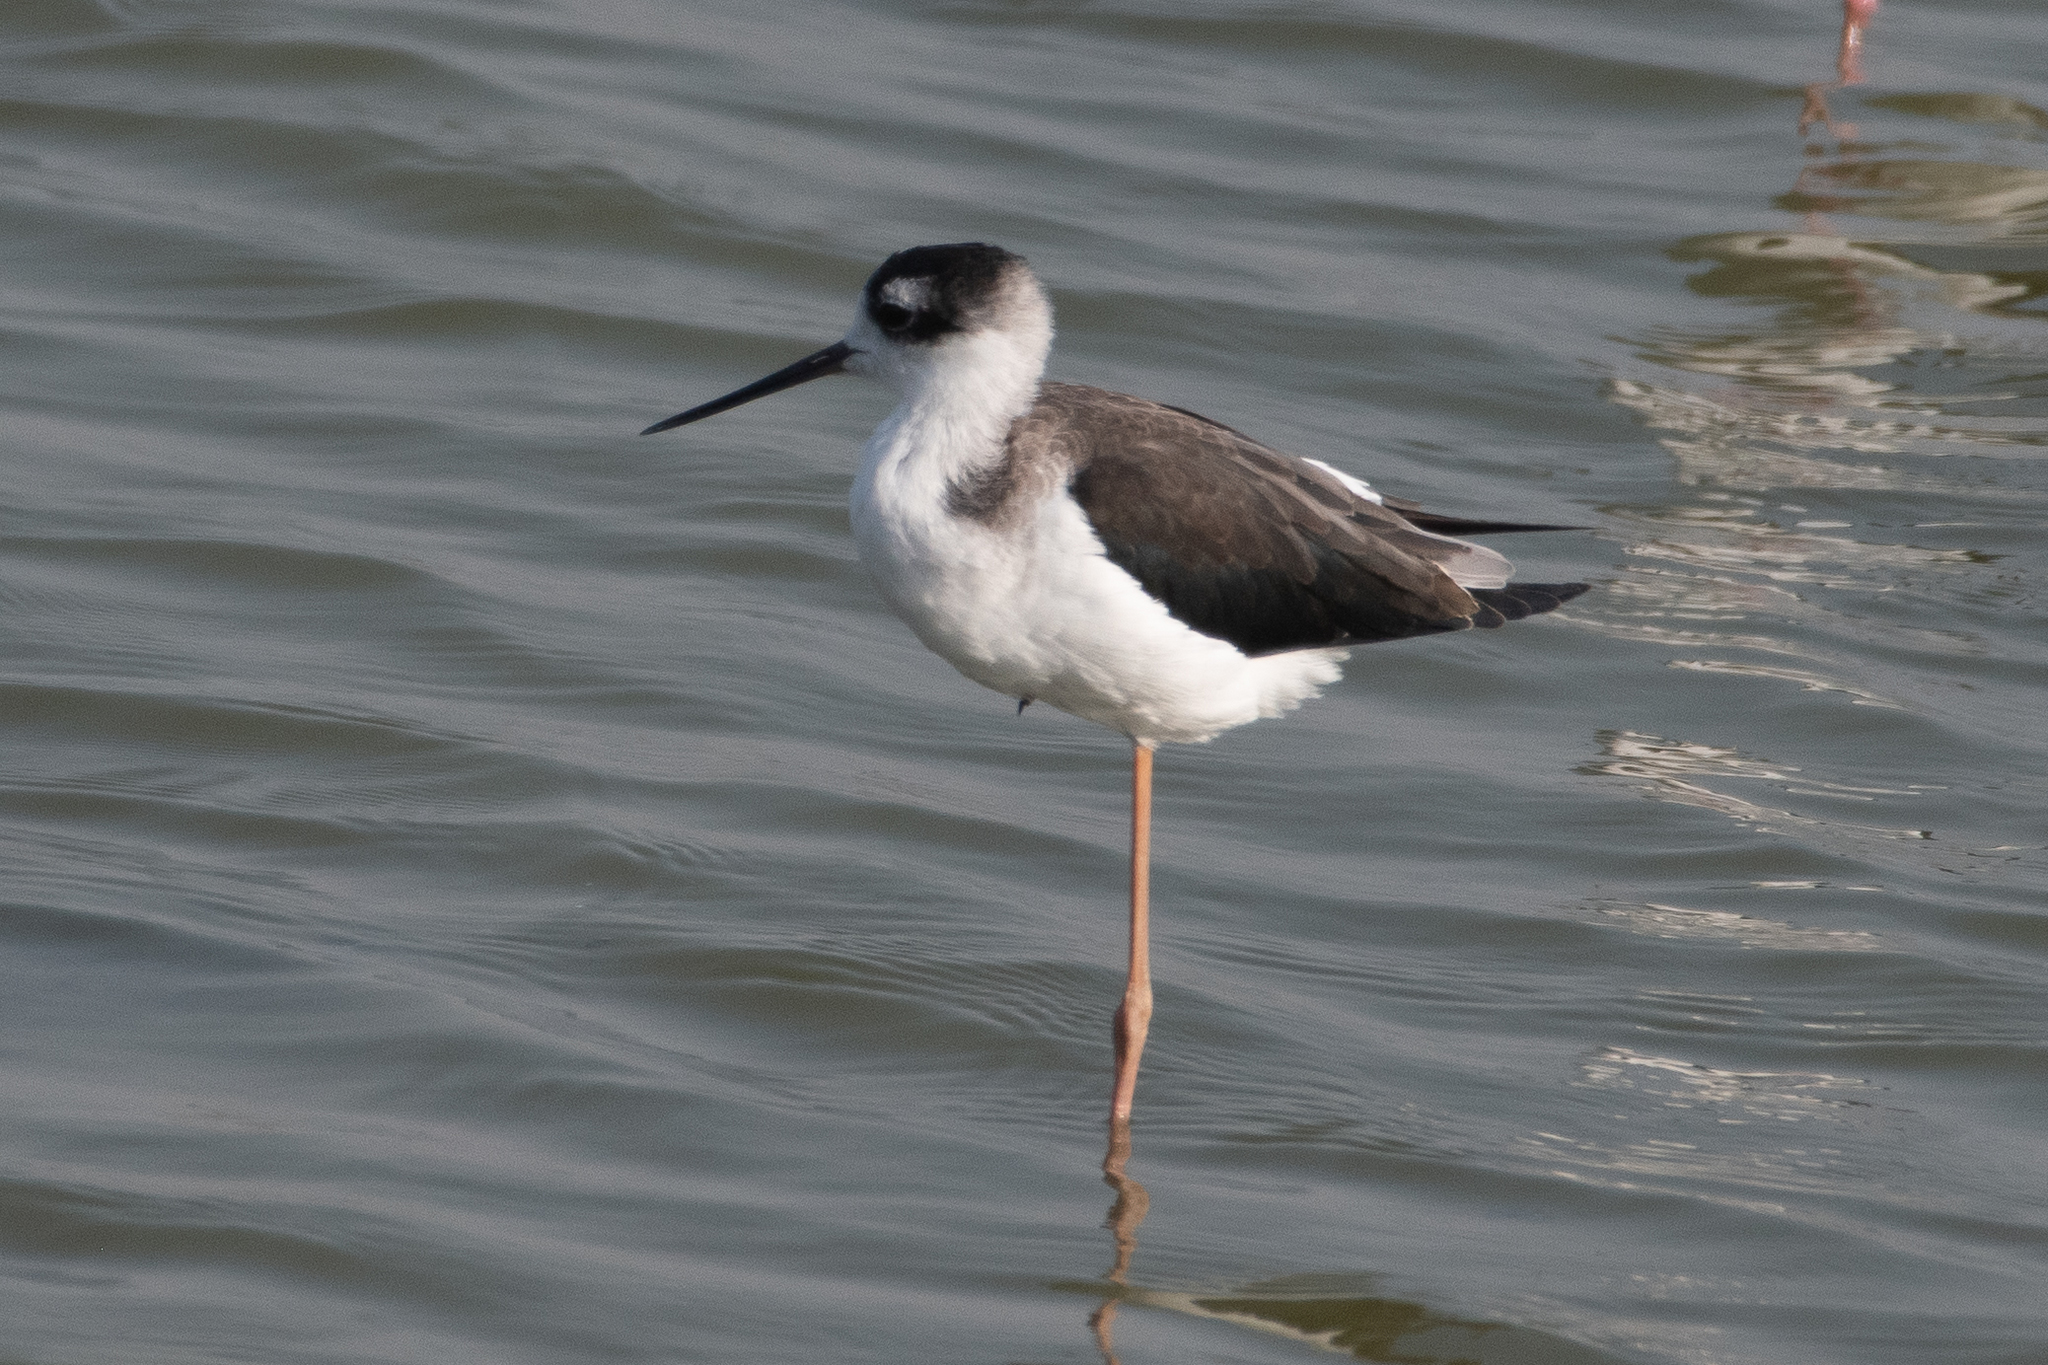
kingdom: Animalia
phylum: Chordata
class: Aves
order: Charadriiformes
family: Recurvirostridae
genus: Himantopus
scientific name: Himantopus mexicanus
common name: Black-necked stilt
